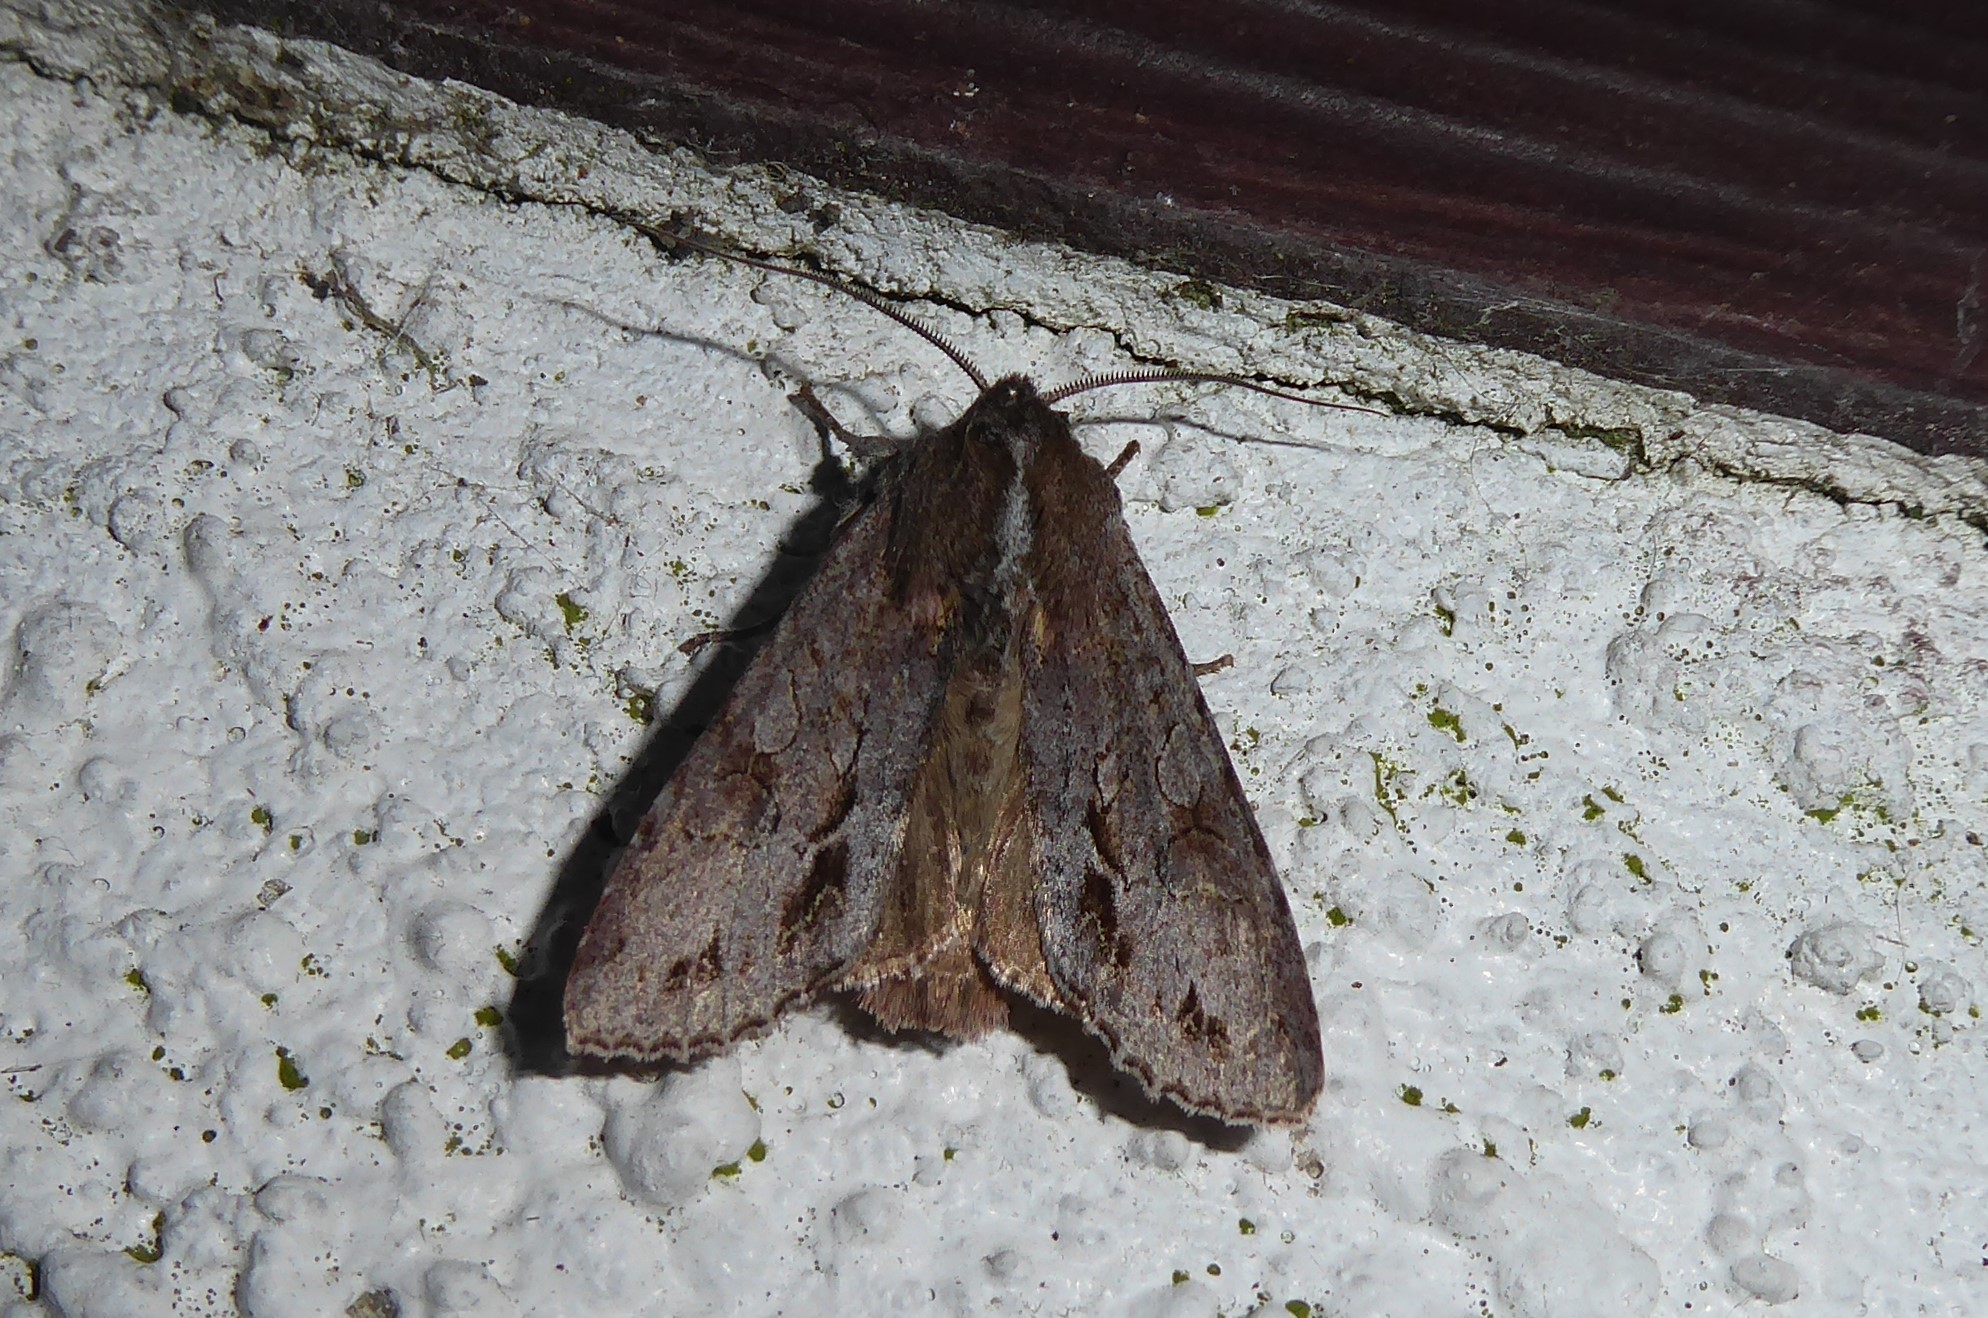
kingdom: Animalia
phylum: Arthropoda
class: Insecta
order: Lepidoptera
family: Noctuidae
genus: Ichneutica
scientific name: Ichneutica
